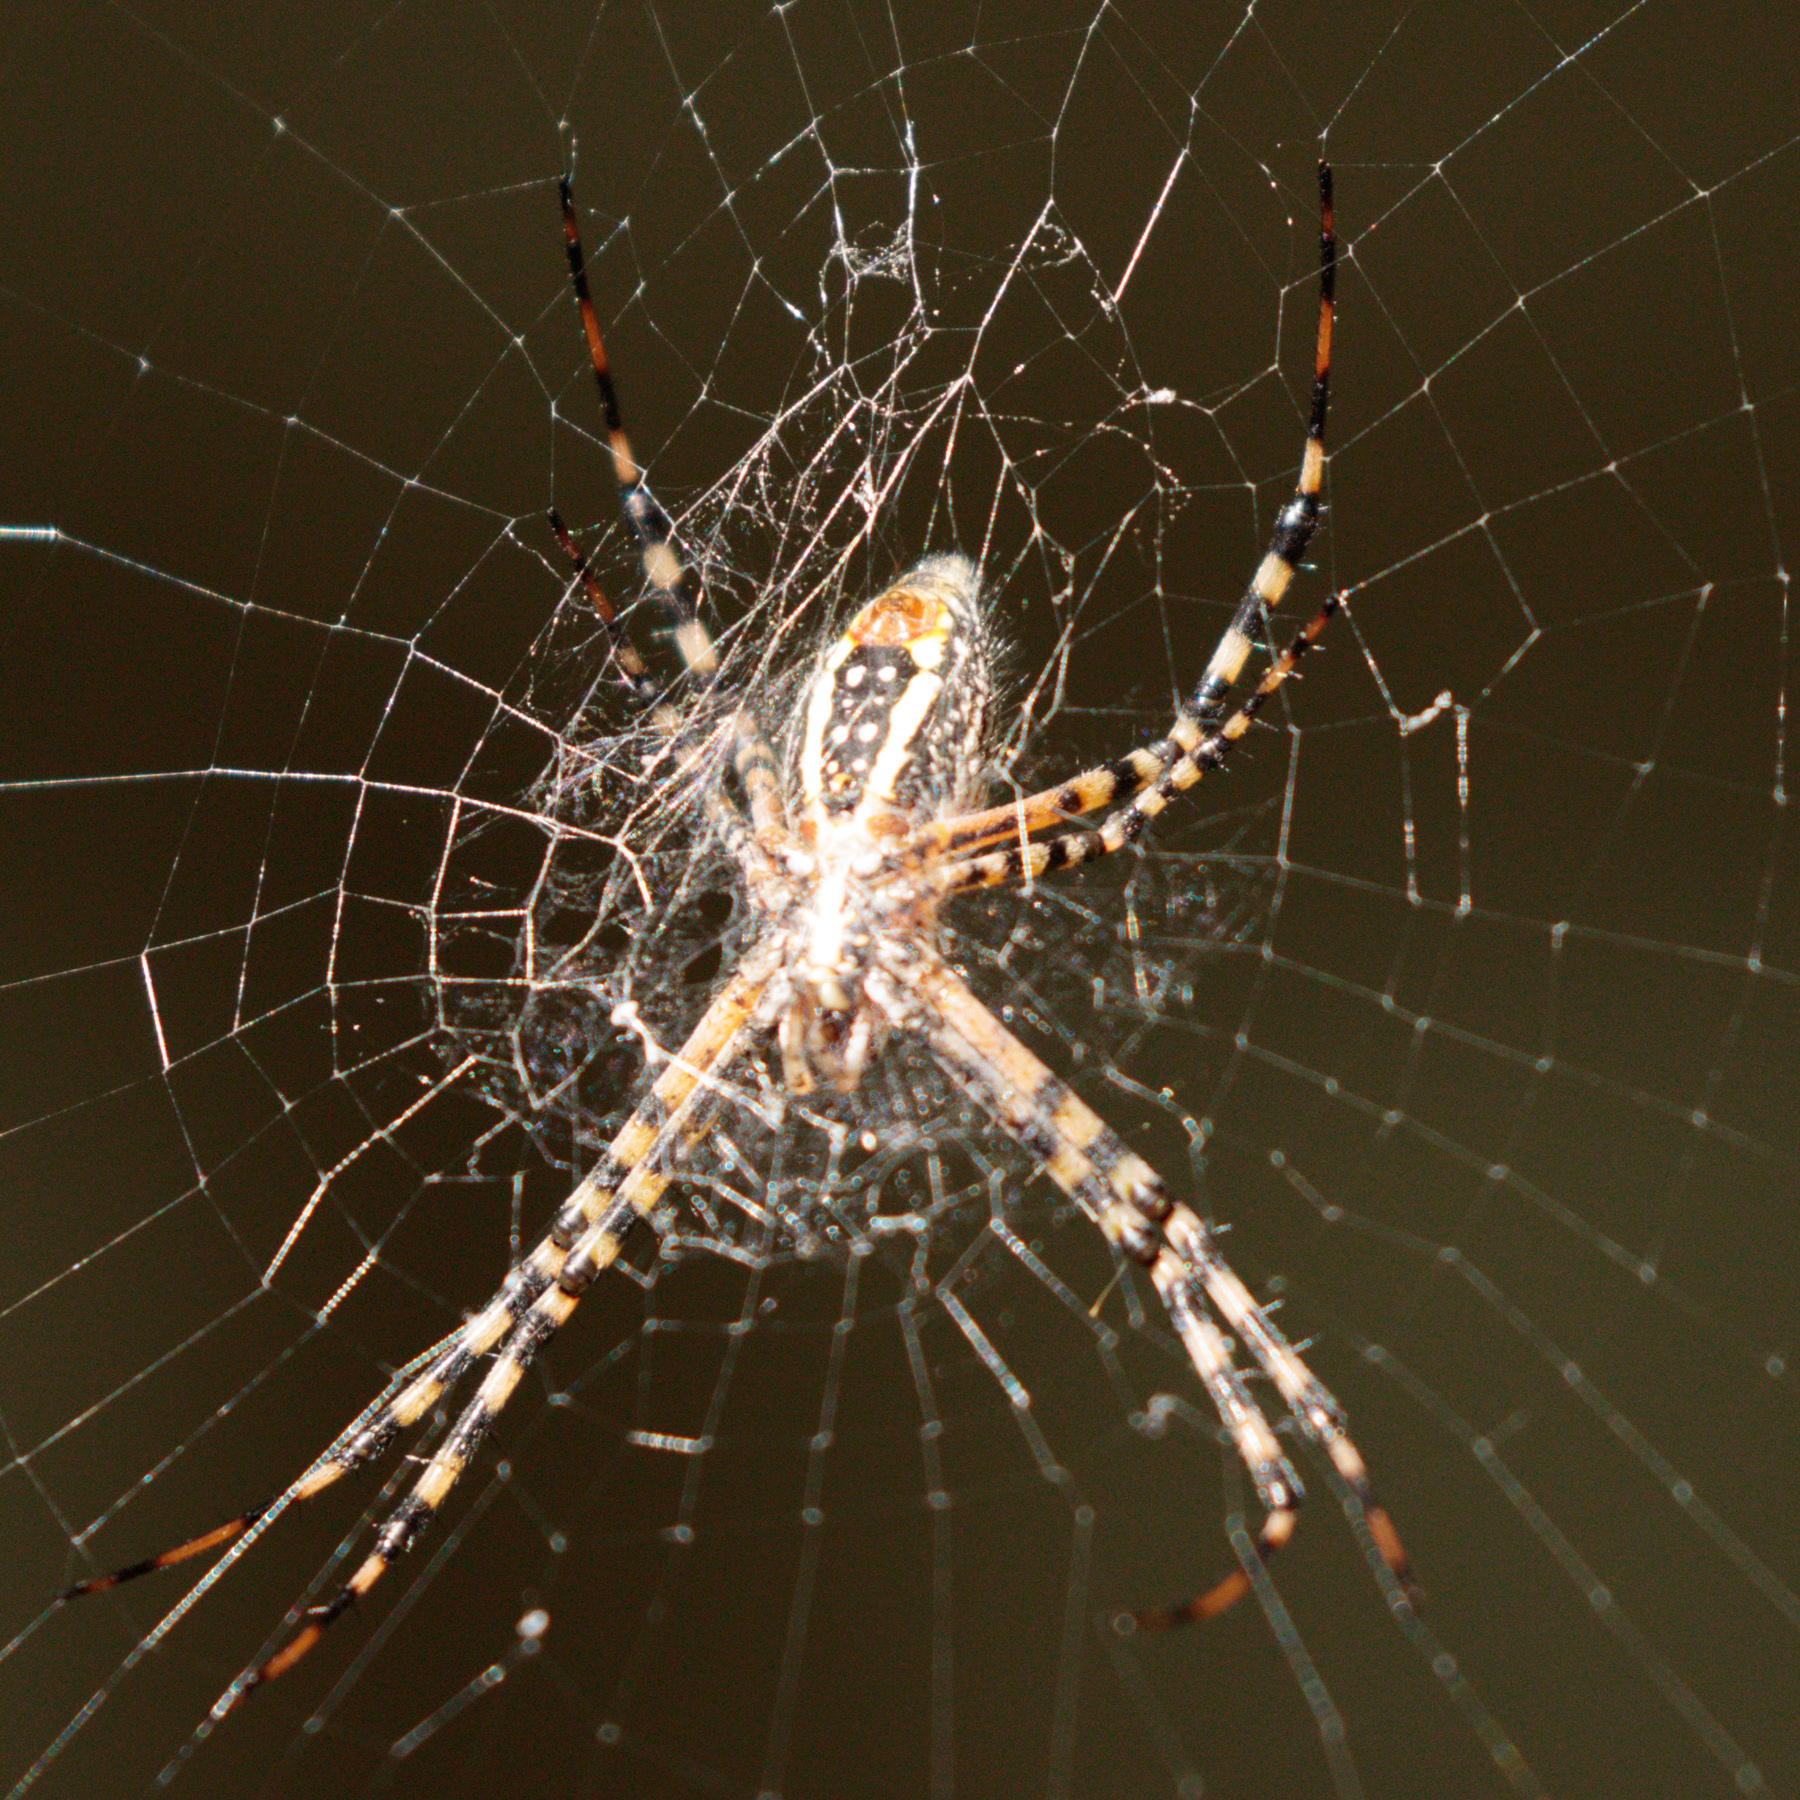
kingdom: Animalia
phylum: Arthropoda
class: Arachnida
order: Araneae
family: Araneidae
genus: Argiope
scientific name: Argiope trifasciata
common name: Banded garden spider
